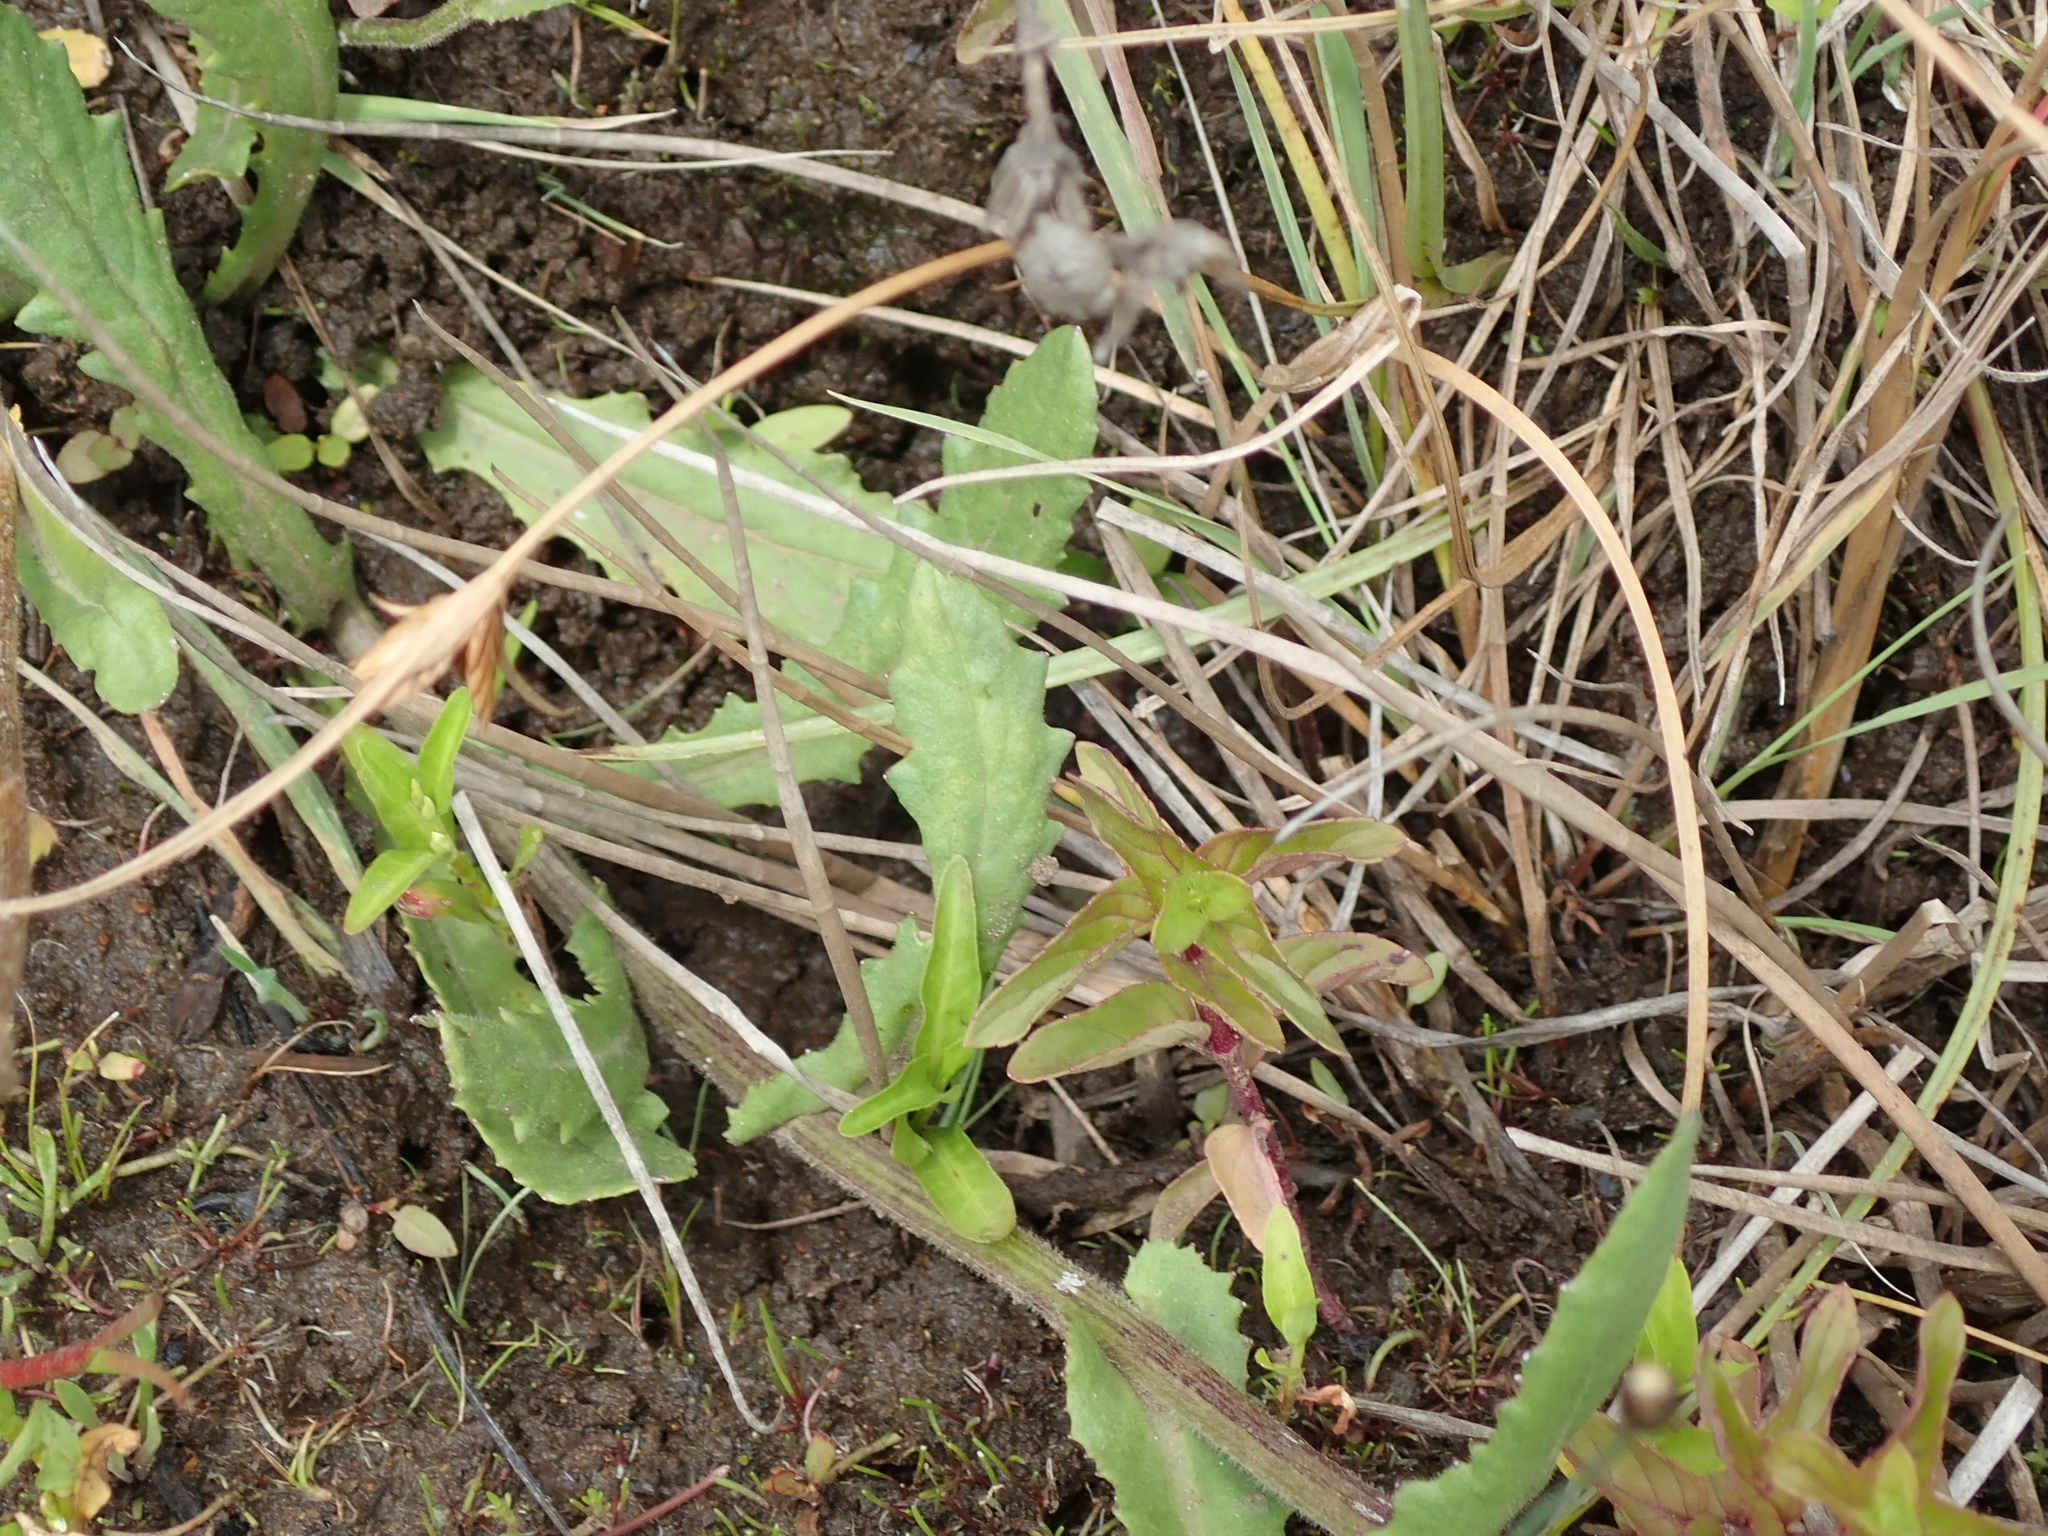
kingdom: Plantae
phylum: Tracheophyta
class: Magnoliopsida
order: Asterales
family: Asteraceae
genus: Senecio
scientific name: Senecio polyodon
